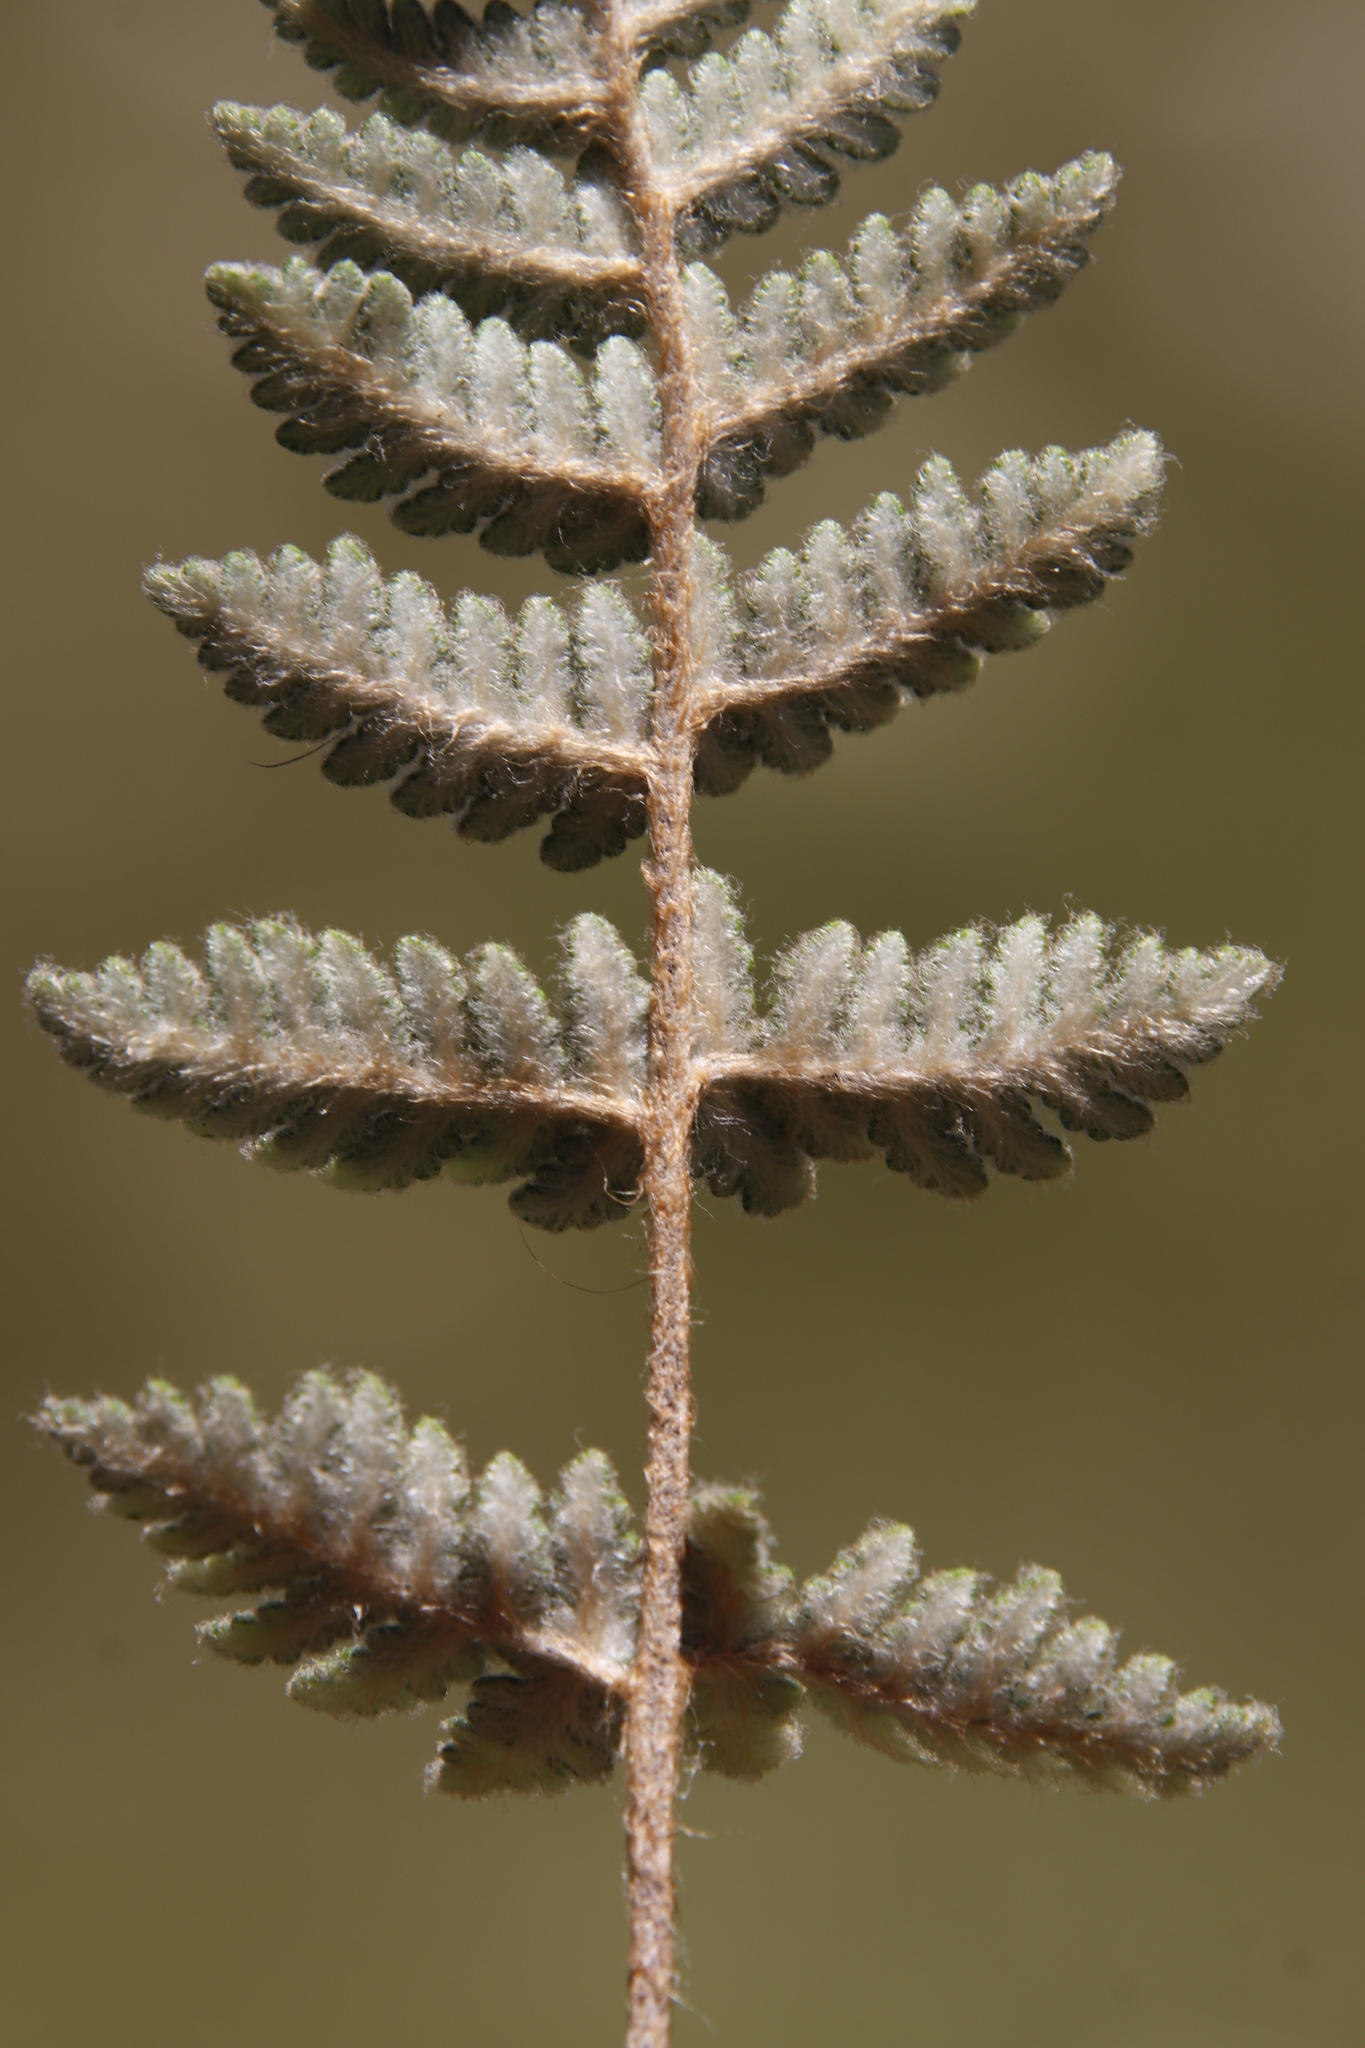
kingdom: Plantae
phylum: Tracheophyta
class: Polypodiopsida
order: Polypodiales
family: Pteridaceae
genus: Cheilanthes
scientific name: Cheilanthes eckloniana
